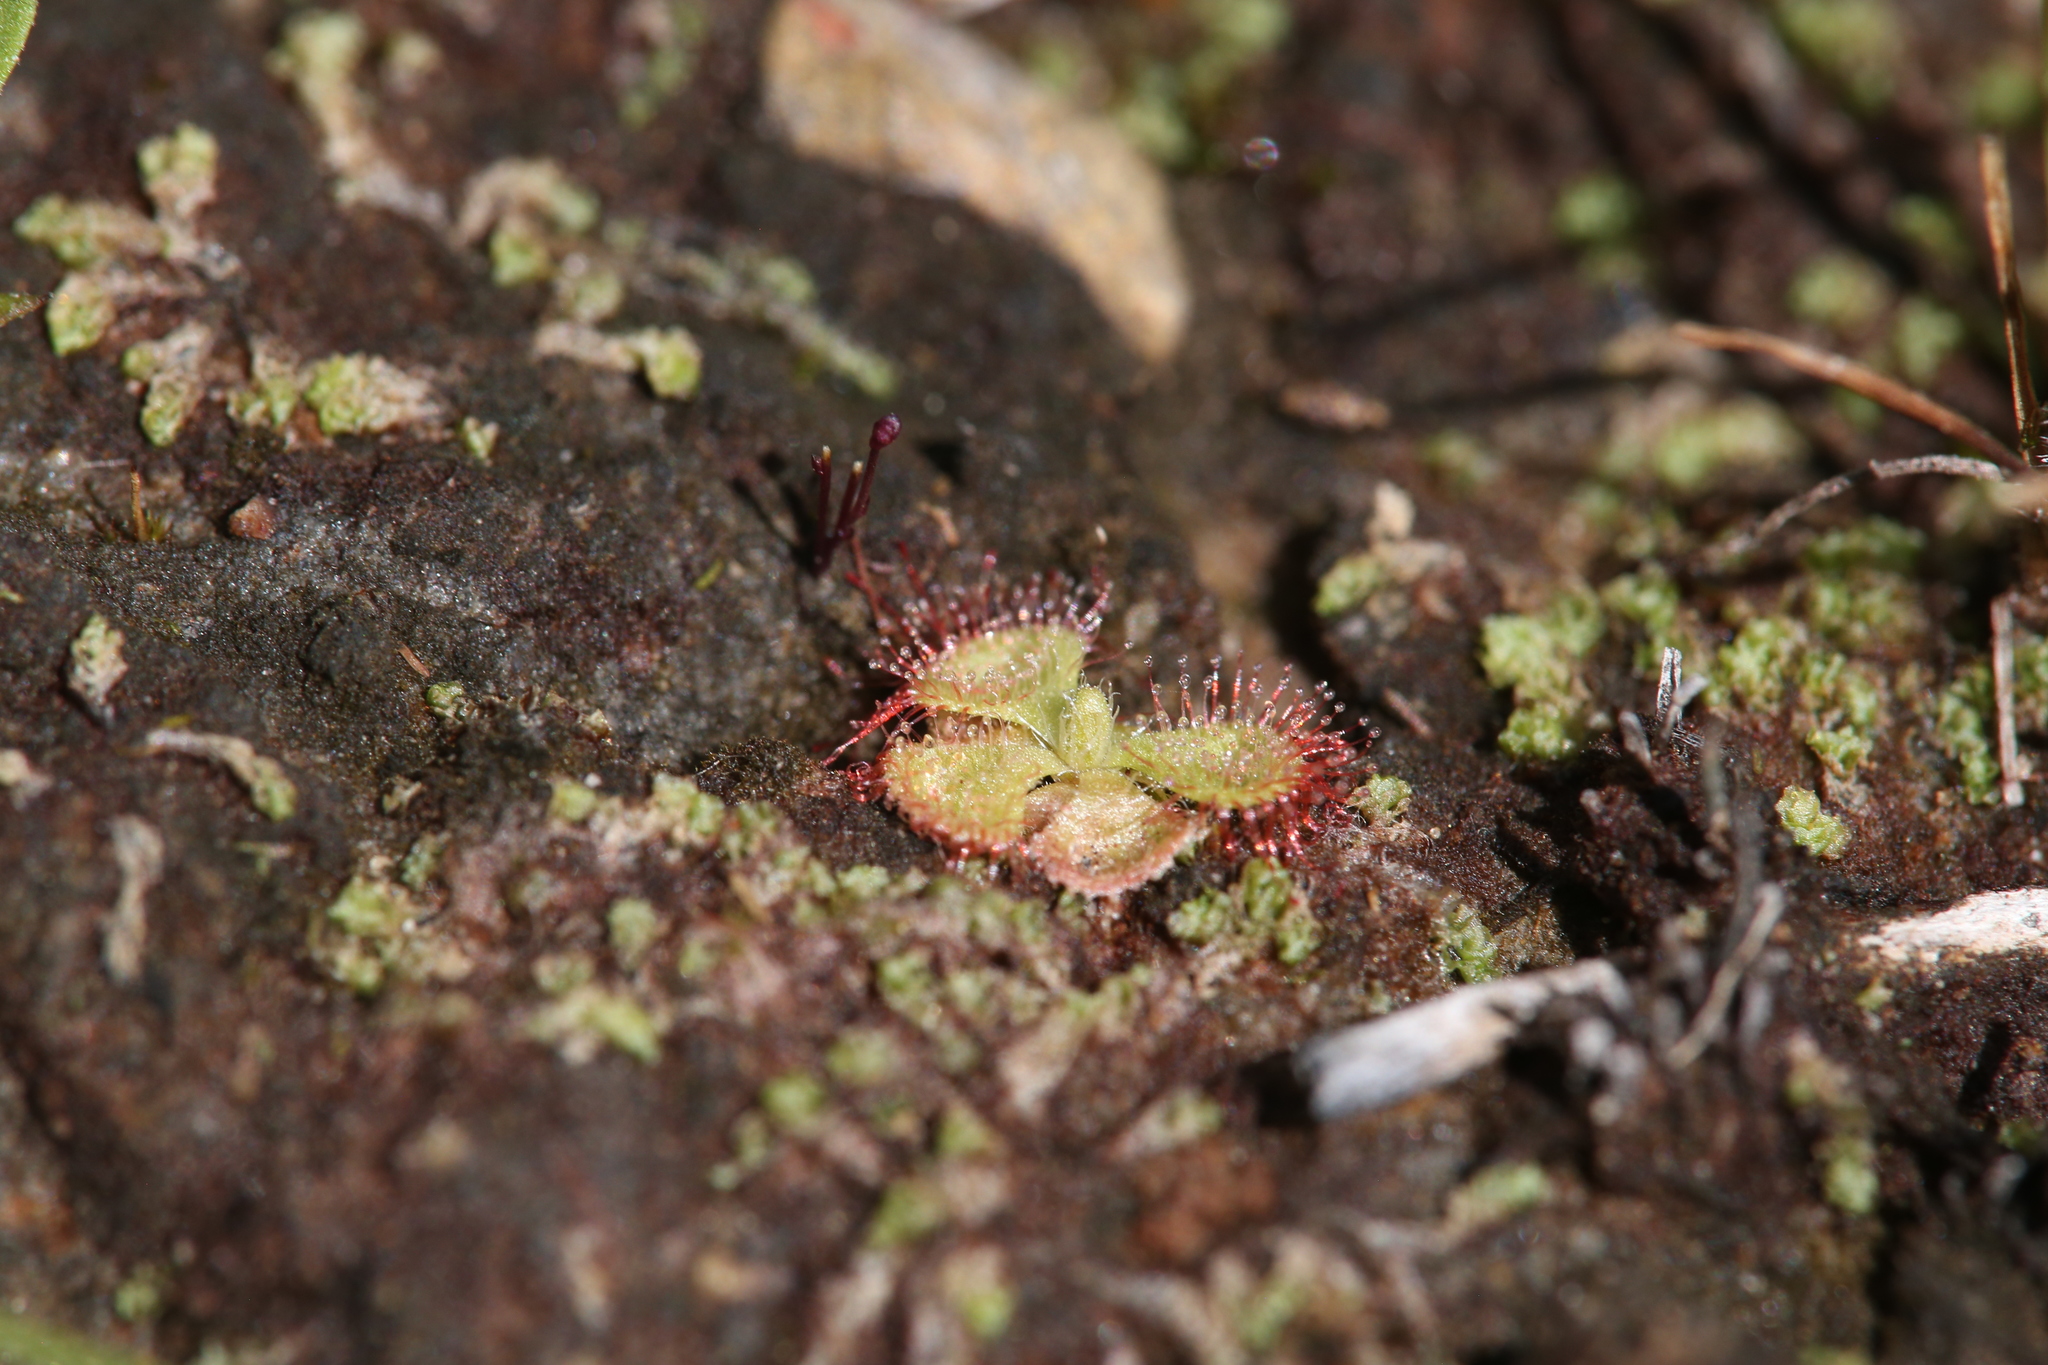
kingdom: Plantae
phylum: Tracheophyta
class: Magnoliopsida
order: Caryophyllales
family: Droseraceae
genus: Drosera
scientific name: Drosera spatulata
